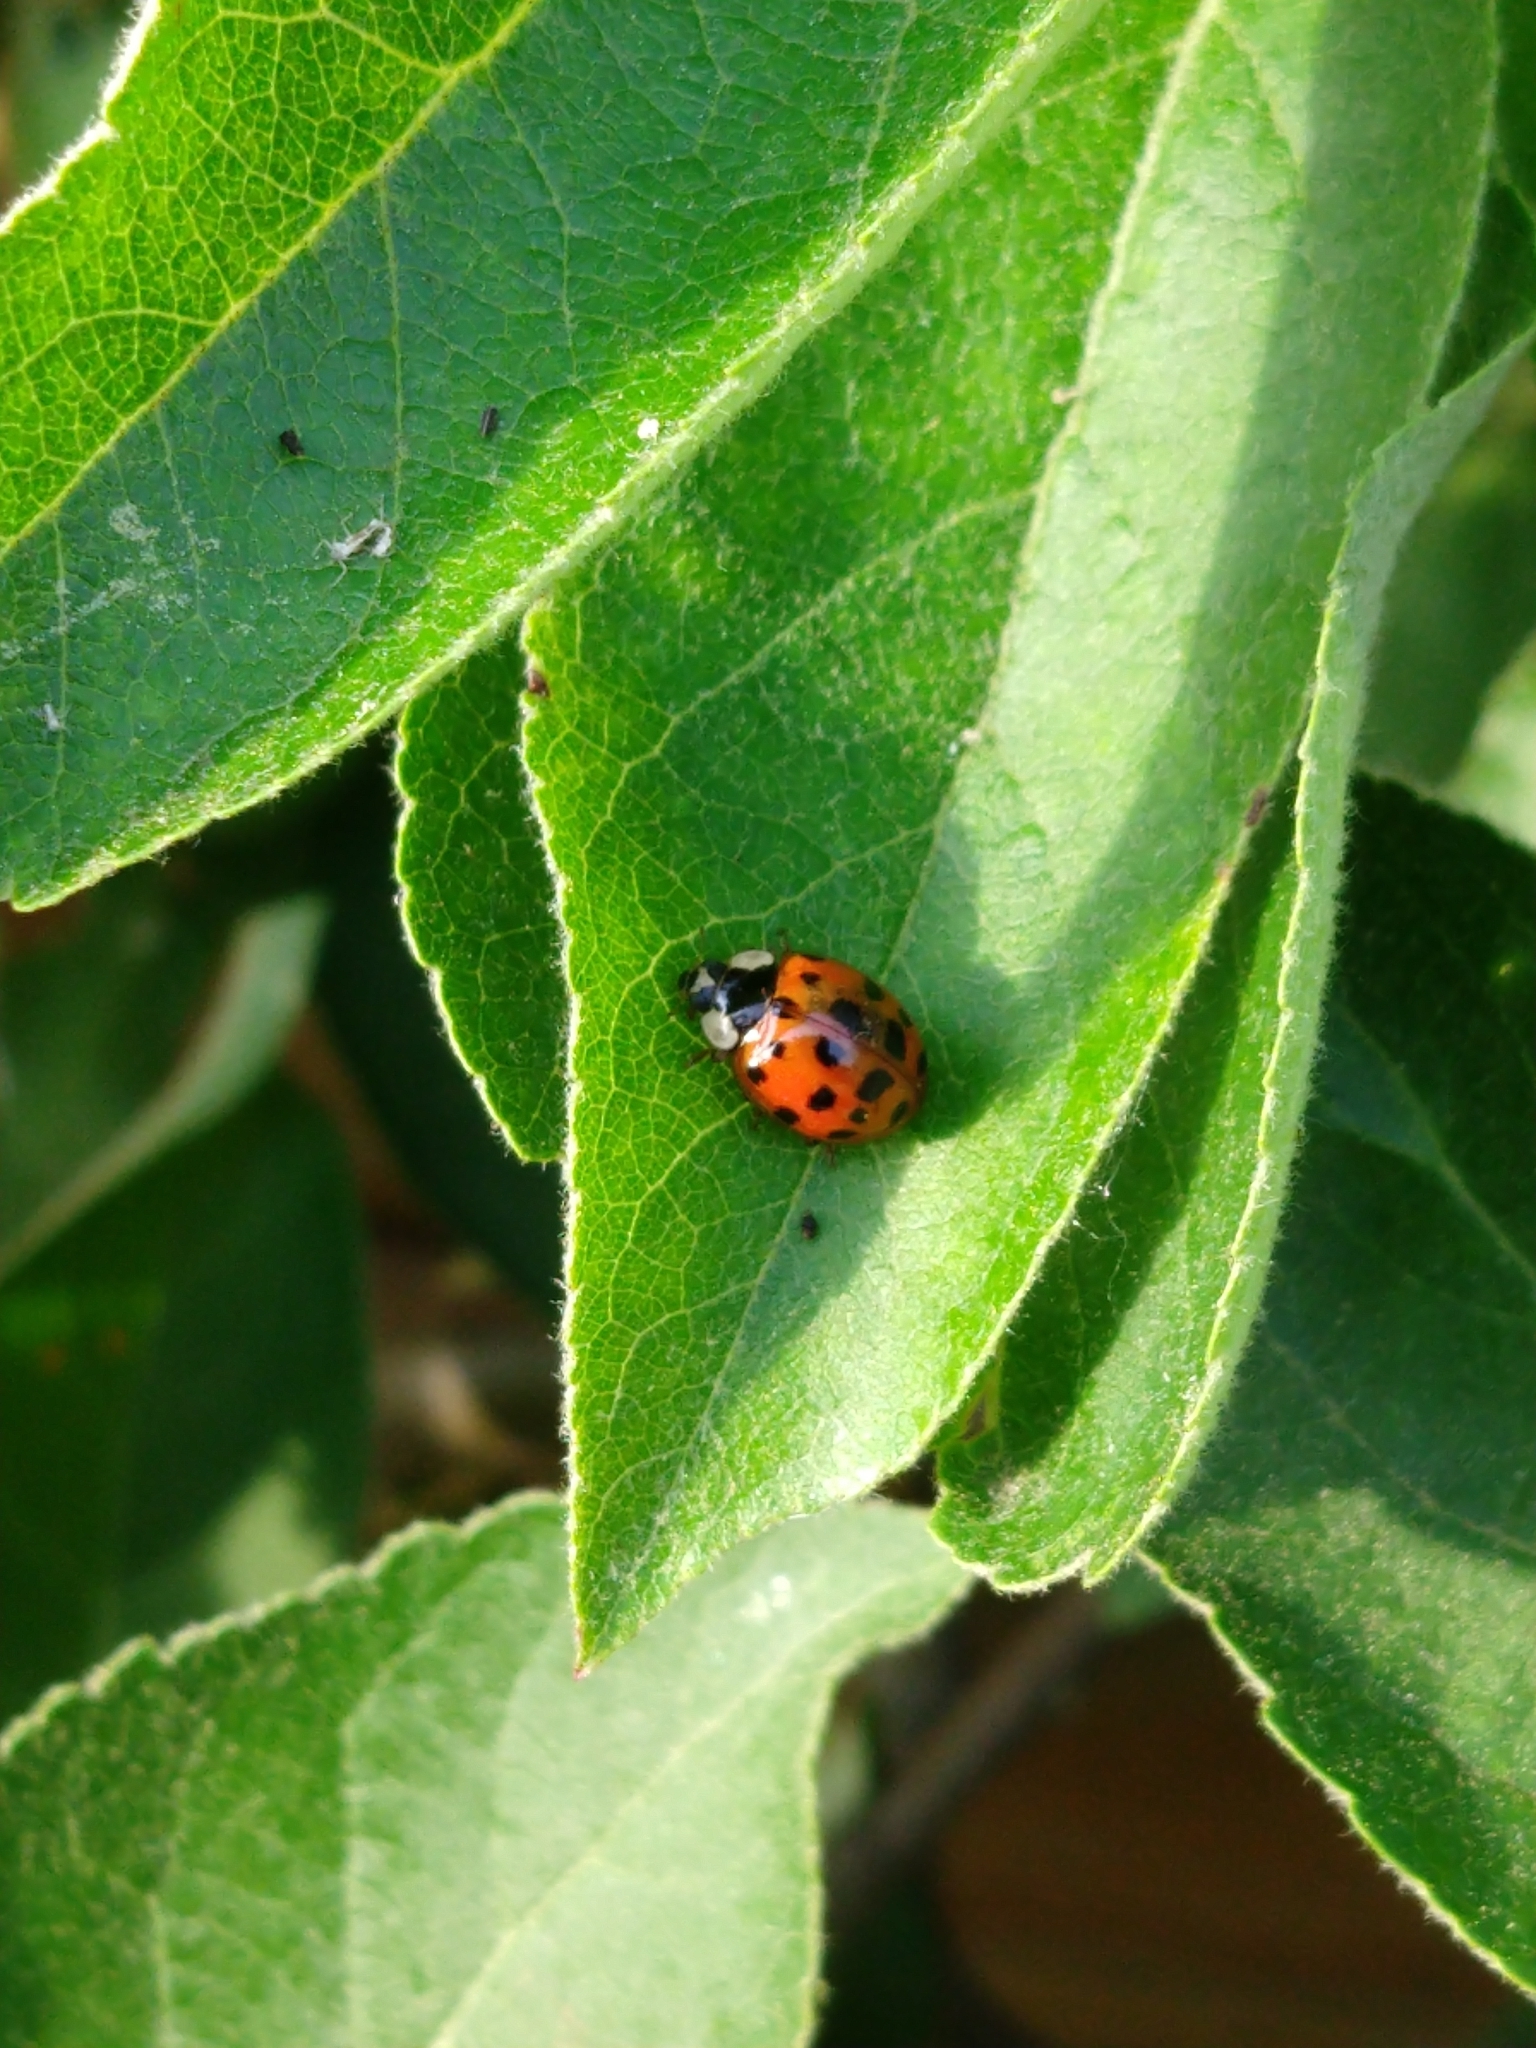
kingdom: Animalia
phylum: Arthropoda
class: Insecta
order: Coleoptera
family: Coccinellidae
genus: Harmonia
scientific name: Harmonia axyridis
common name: Harlequin ladybird
